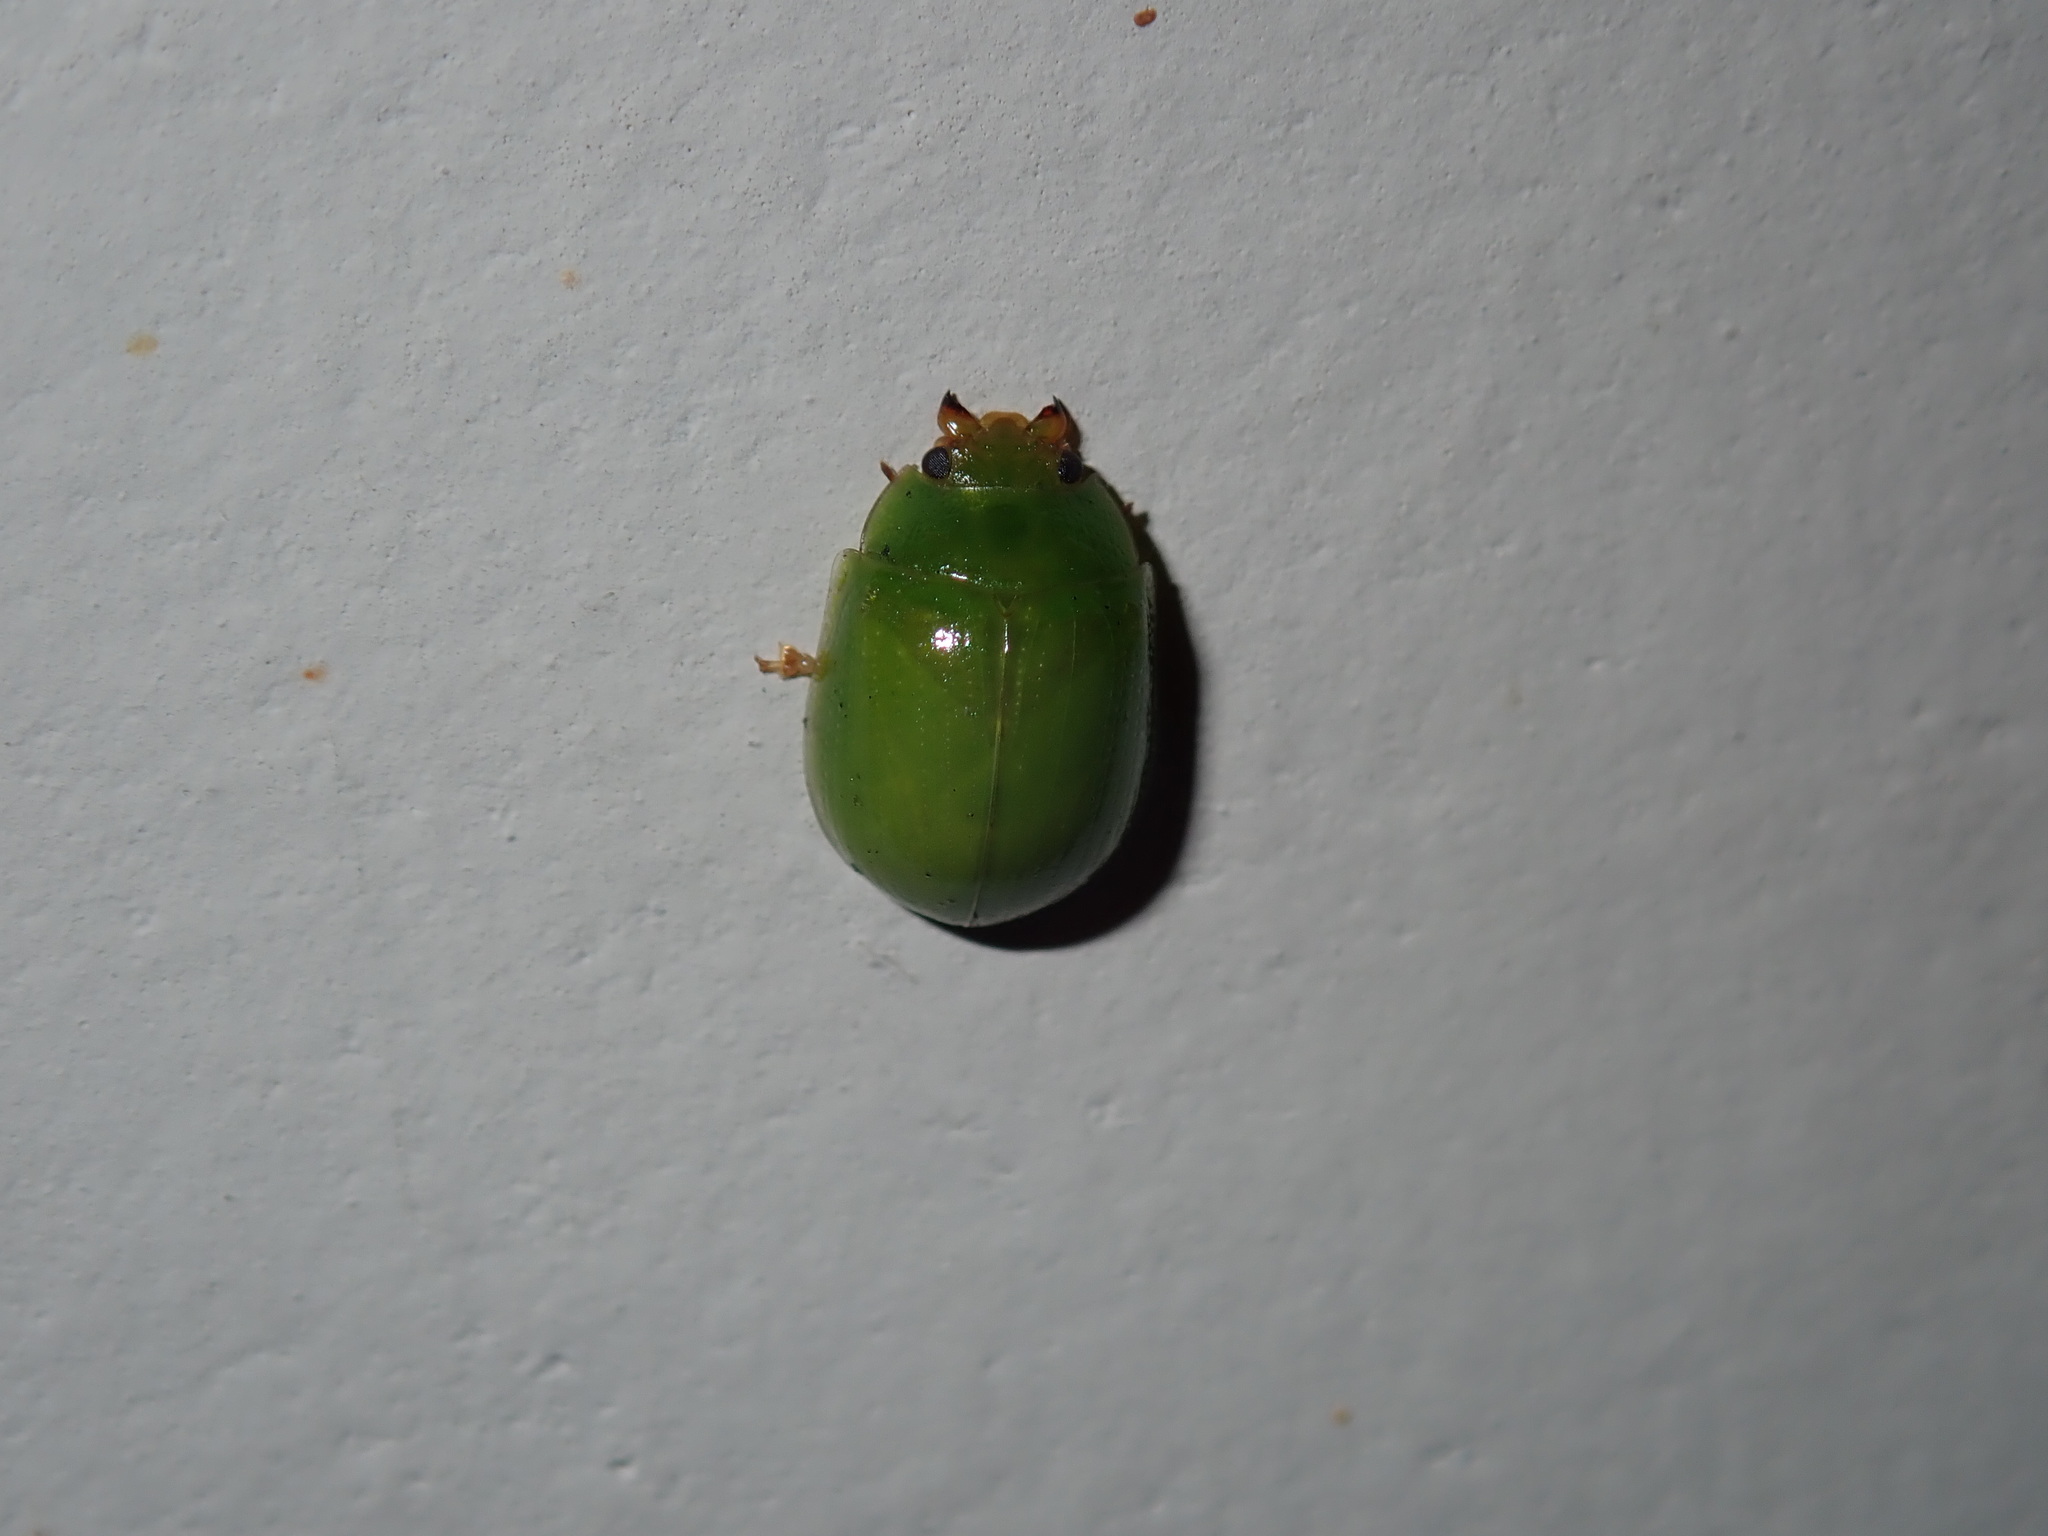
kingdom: Animalia
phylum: Arthropoda
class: Insecta
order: Coleoptera
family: Chrysomelidae
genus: Paropsides
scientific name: Paropsides
